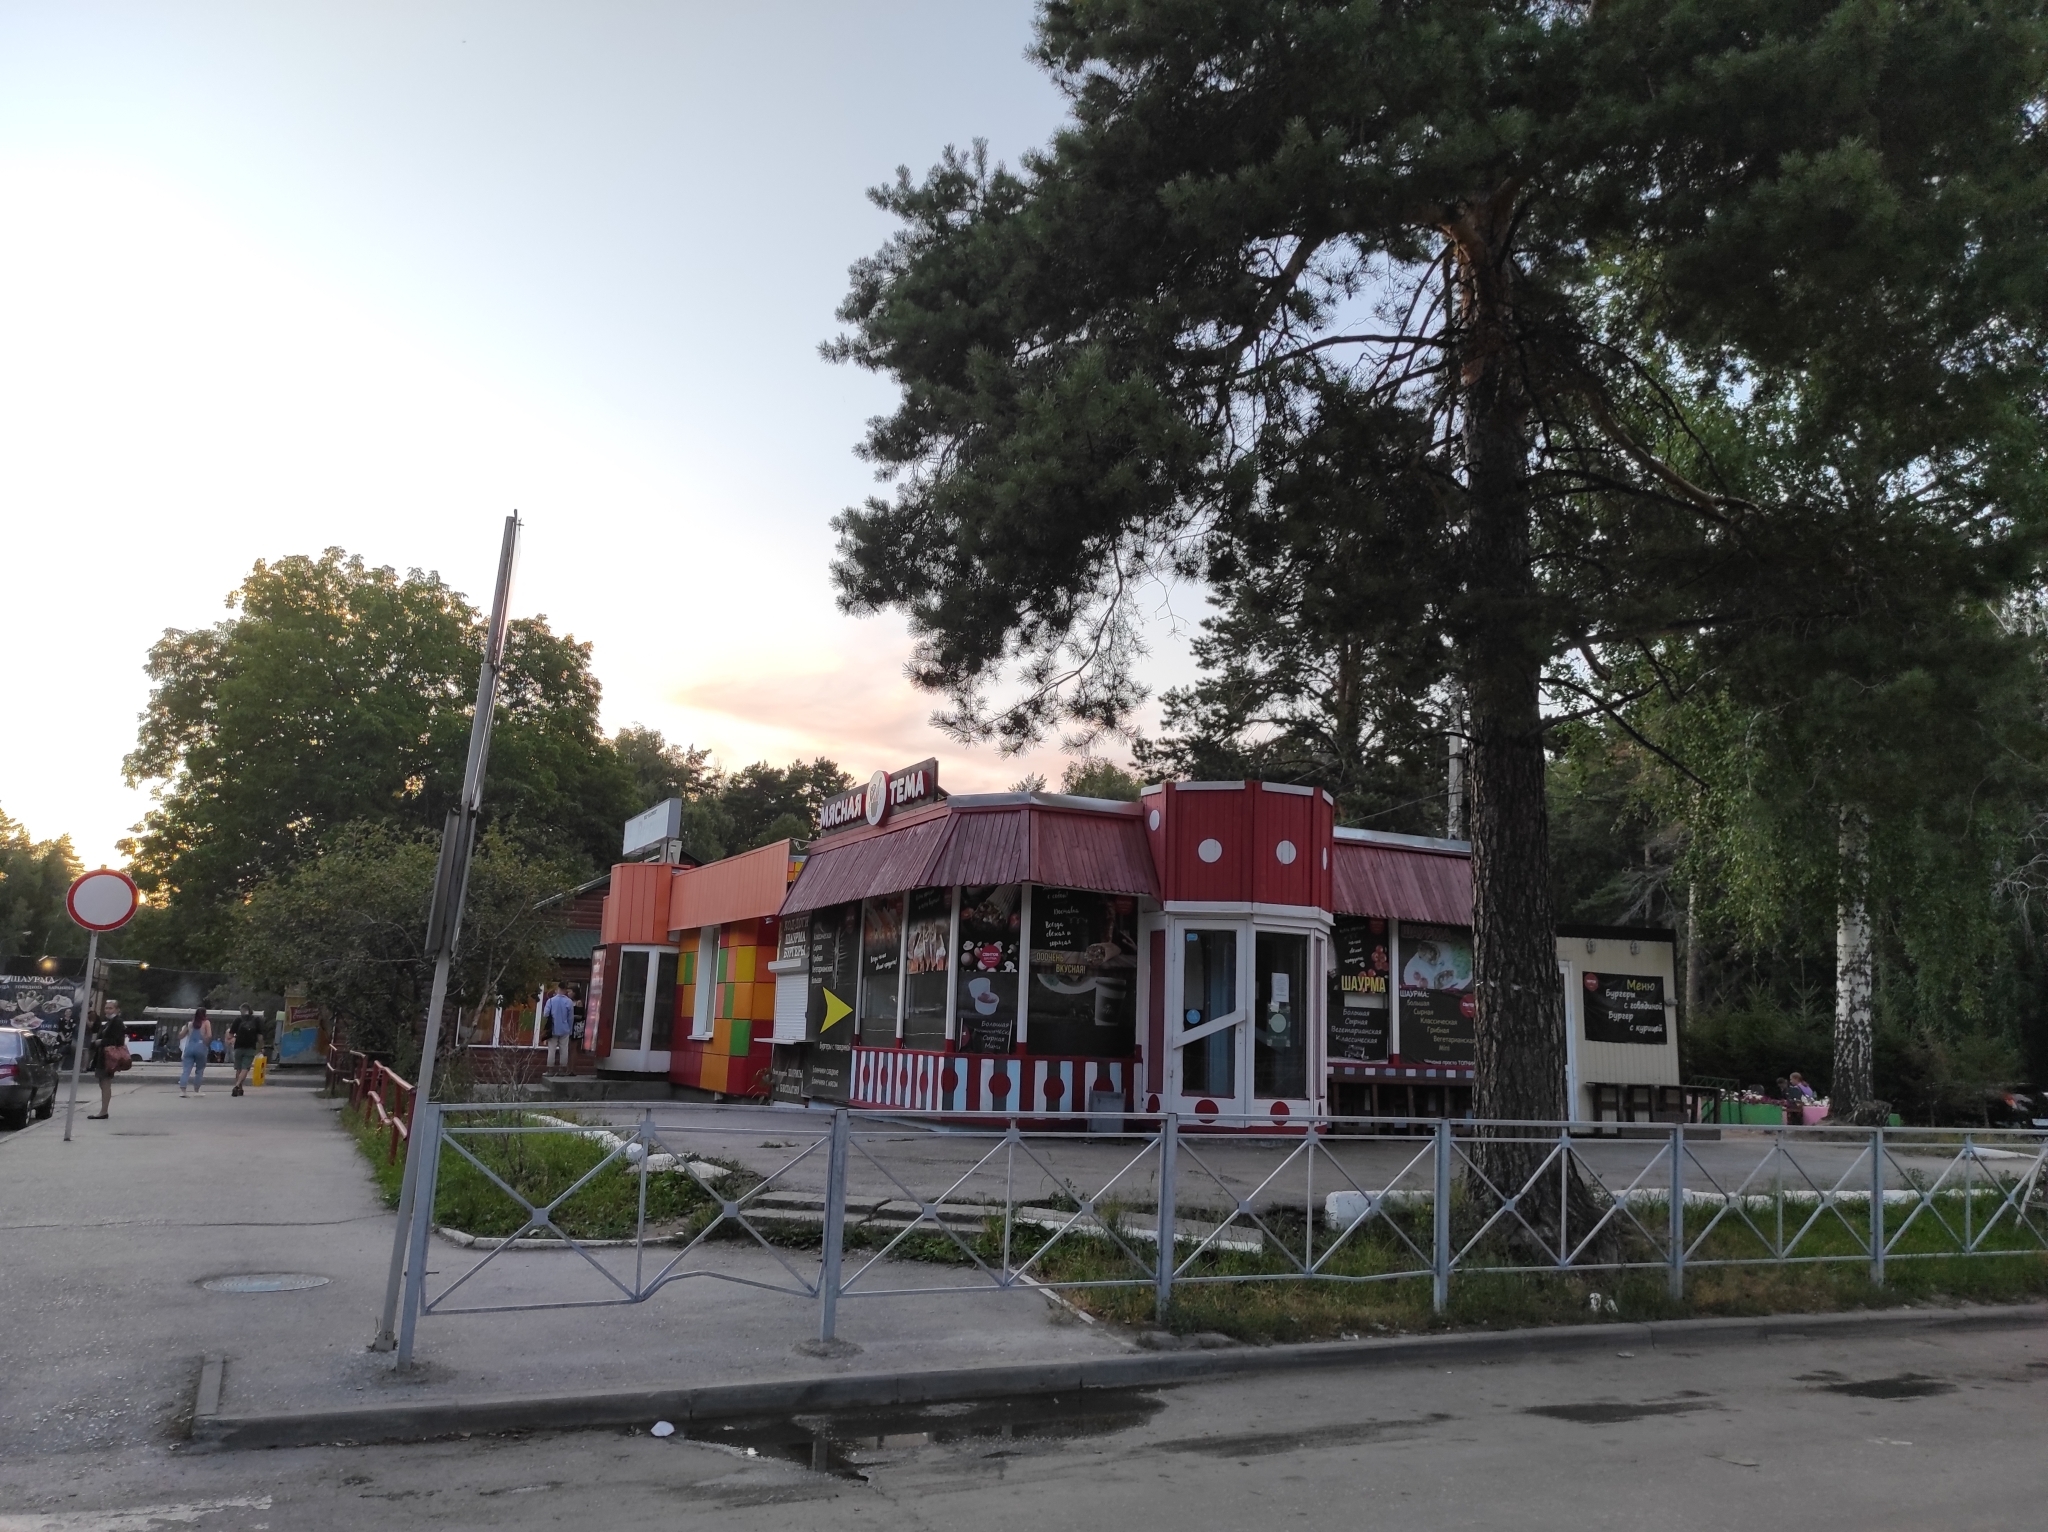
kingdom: Plantae
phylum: Tracheophyta
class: Pinopsida
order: Pinales
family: Pinaceae
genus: Pinus
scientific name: Pinus sylvestris
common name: Scots pine
